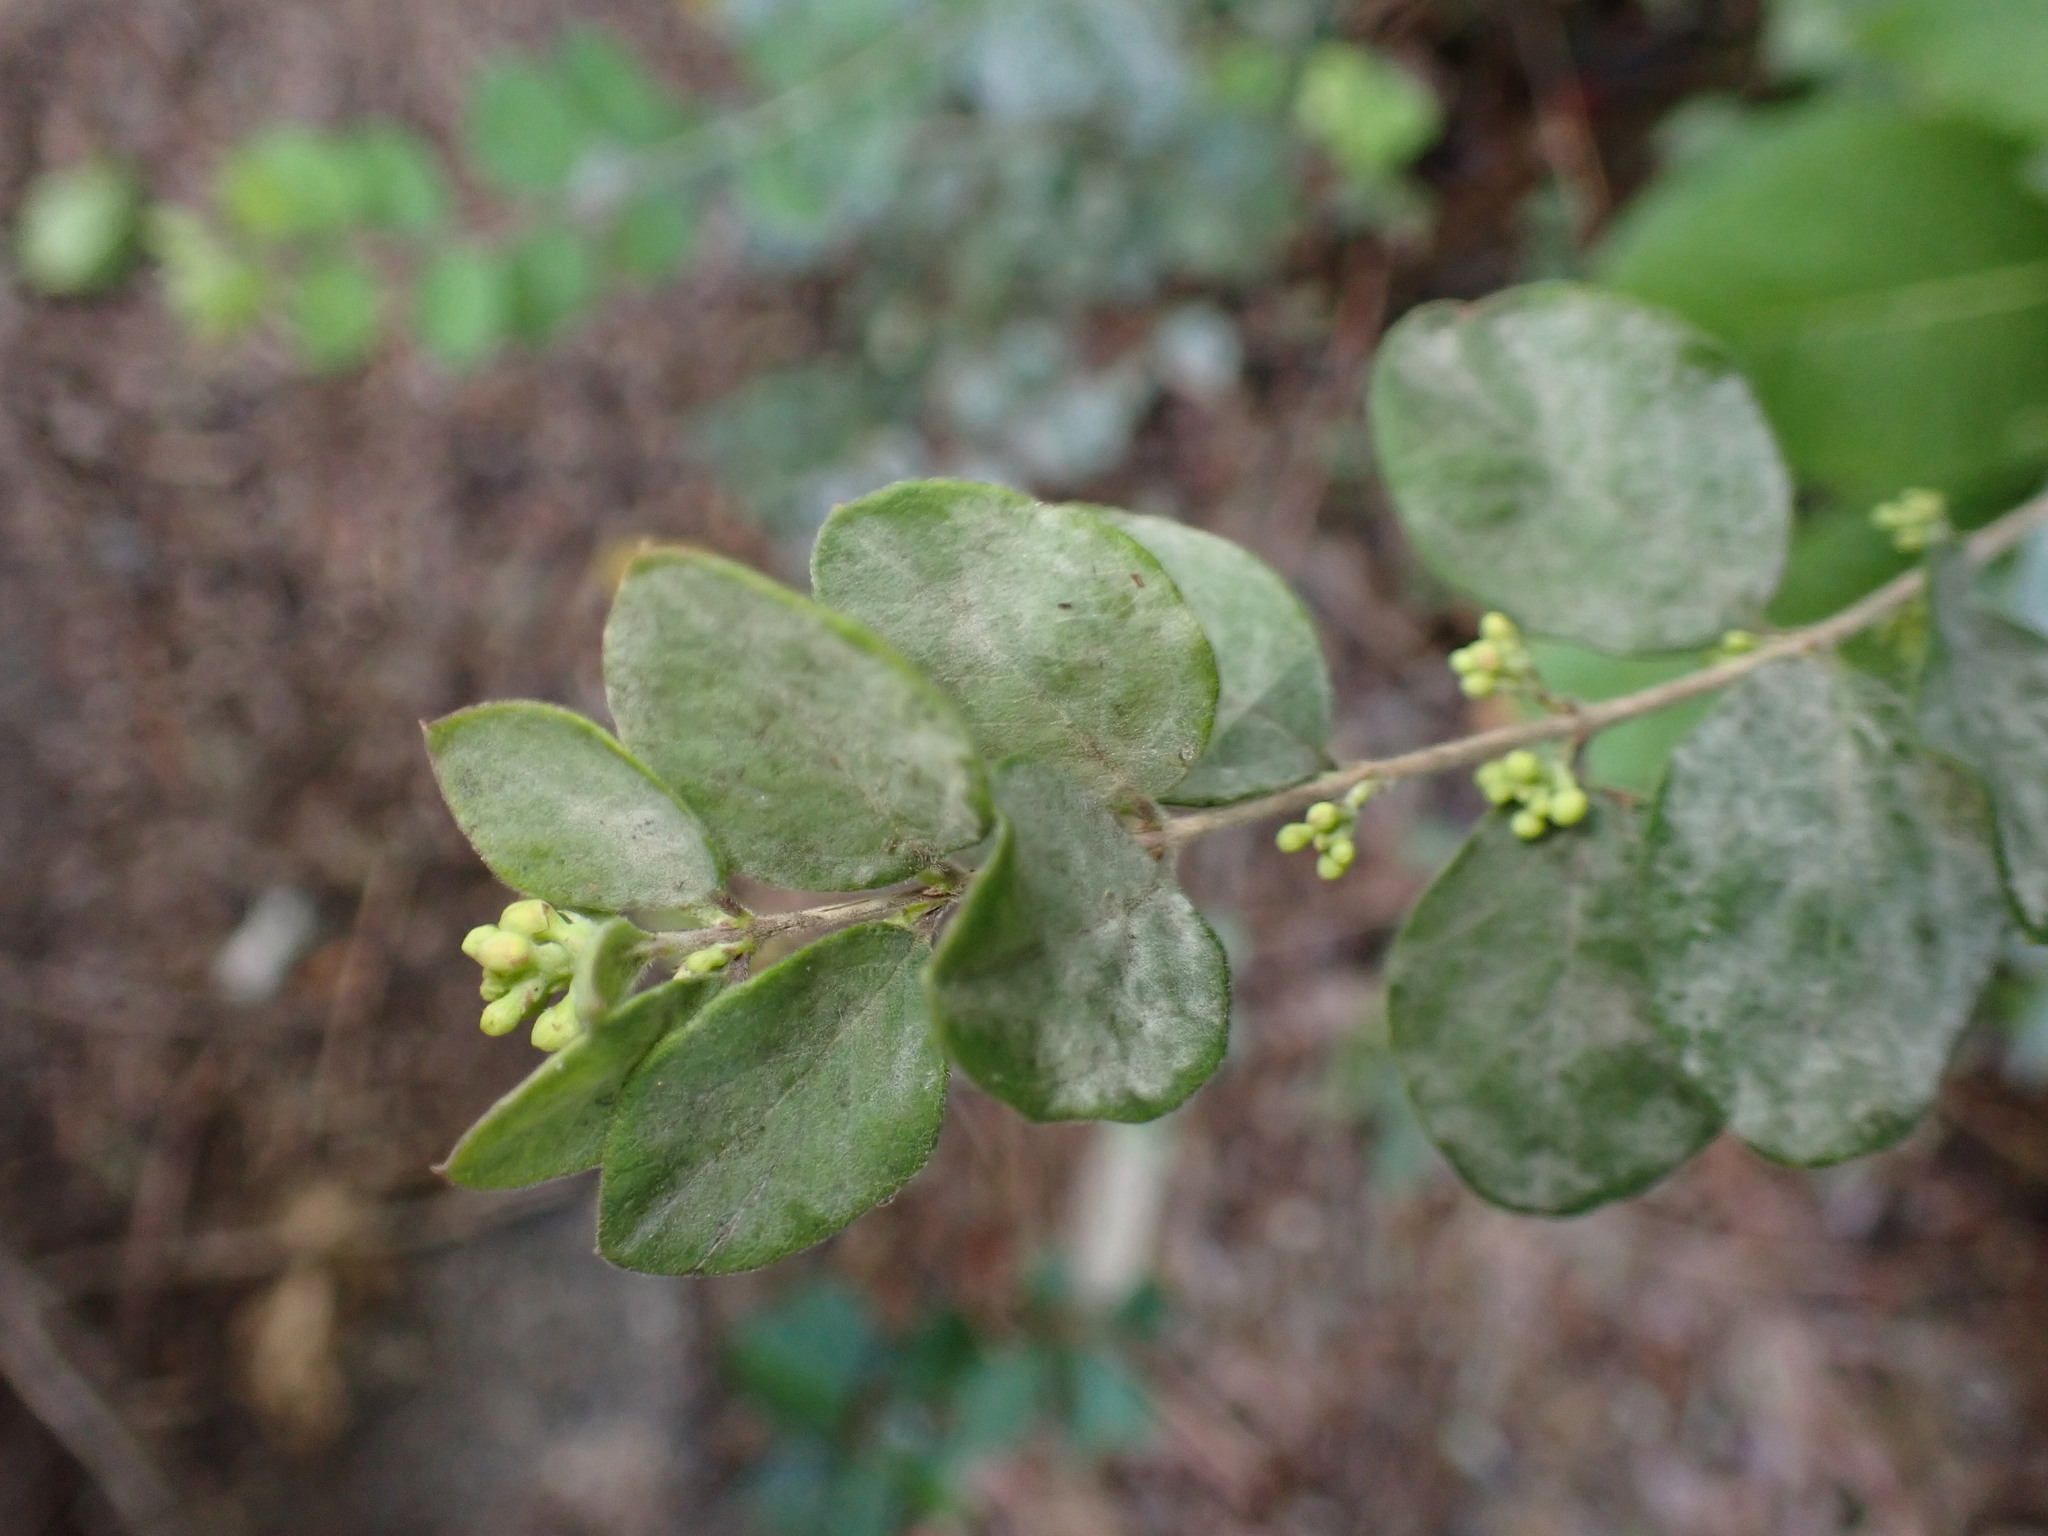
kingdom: Fungi
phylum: Ascomycota
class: Leotiomycetes
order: Helotiales
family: Erysiphaceae
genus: Erysiphe
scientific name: Erysiphe symphoricarpi
